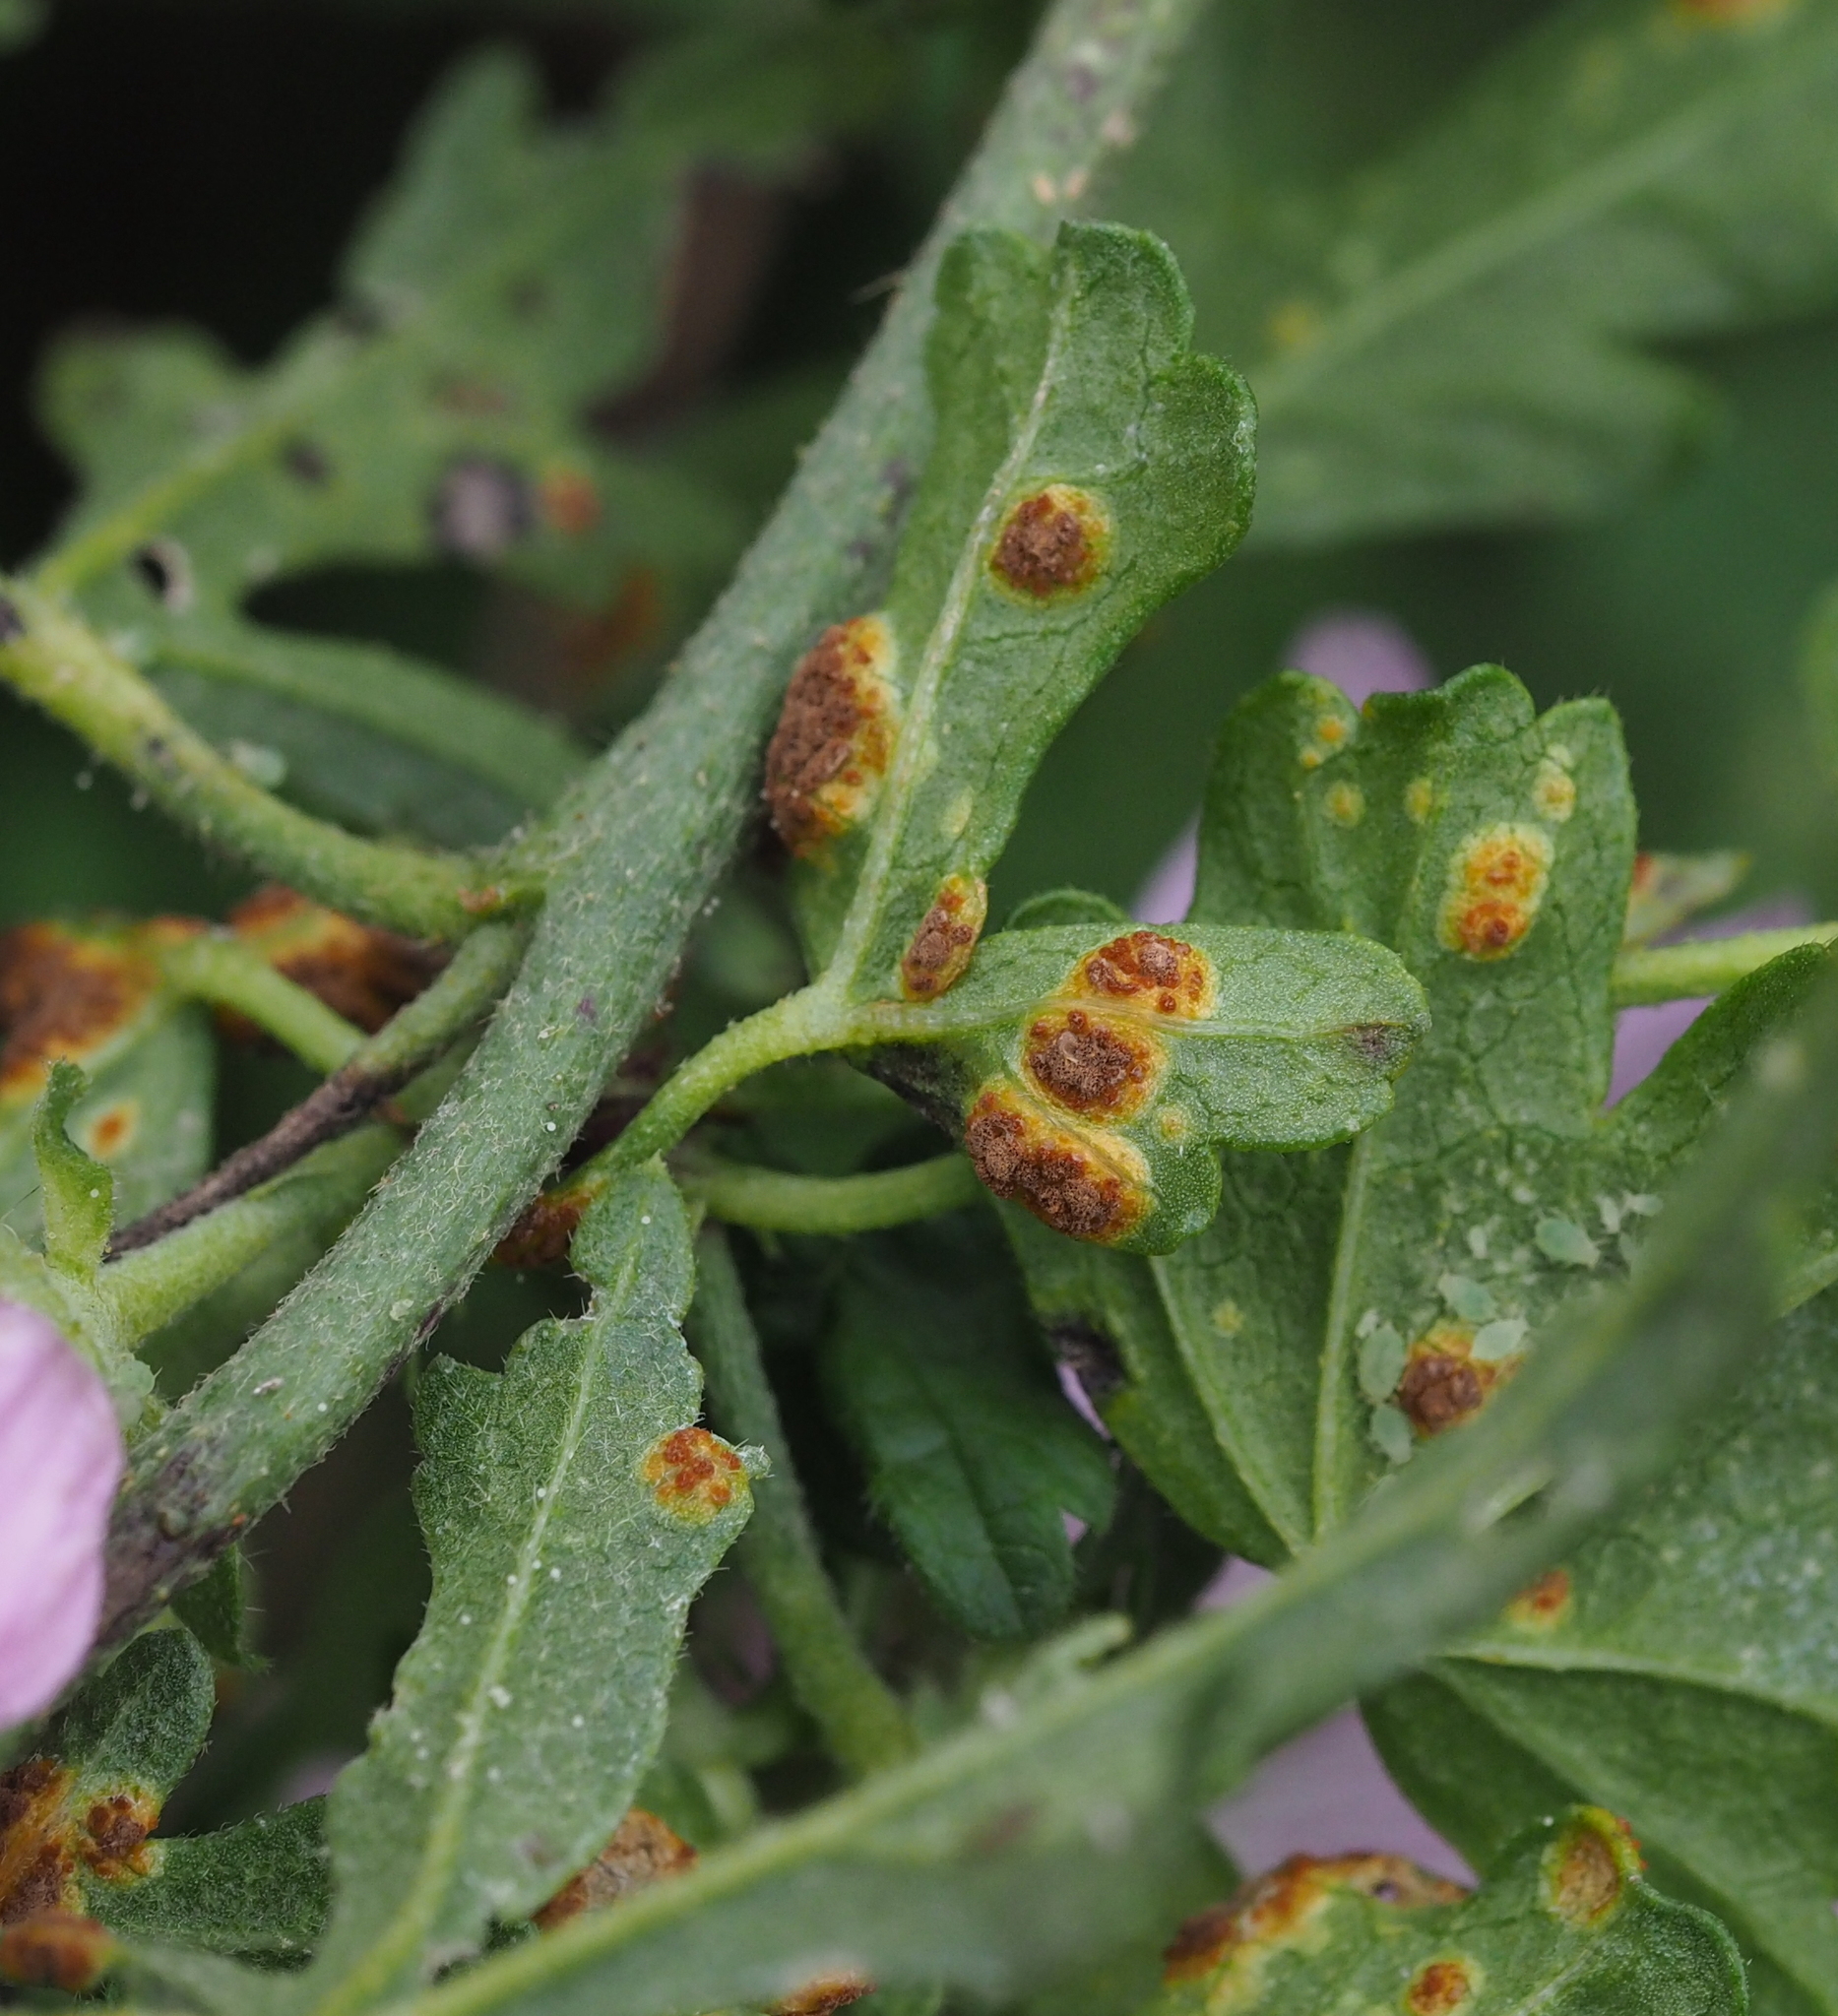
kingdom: Fungi
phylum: Basidiomycota
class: Pucciniomycetes
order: Pucciniales
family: Pucciniaceae
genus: Puccinia
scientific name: Puccinia malvacearum
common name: Hollyhock rust
